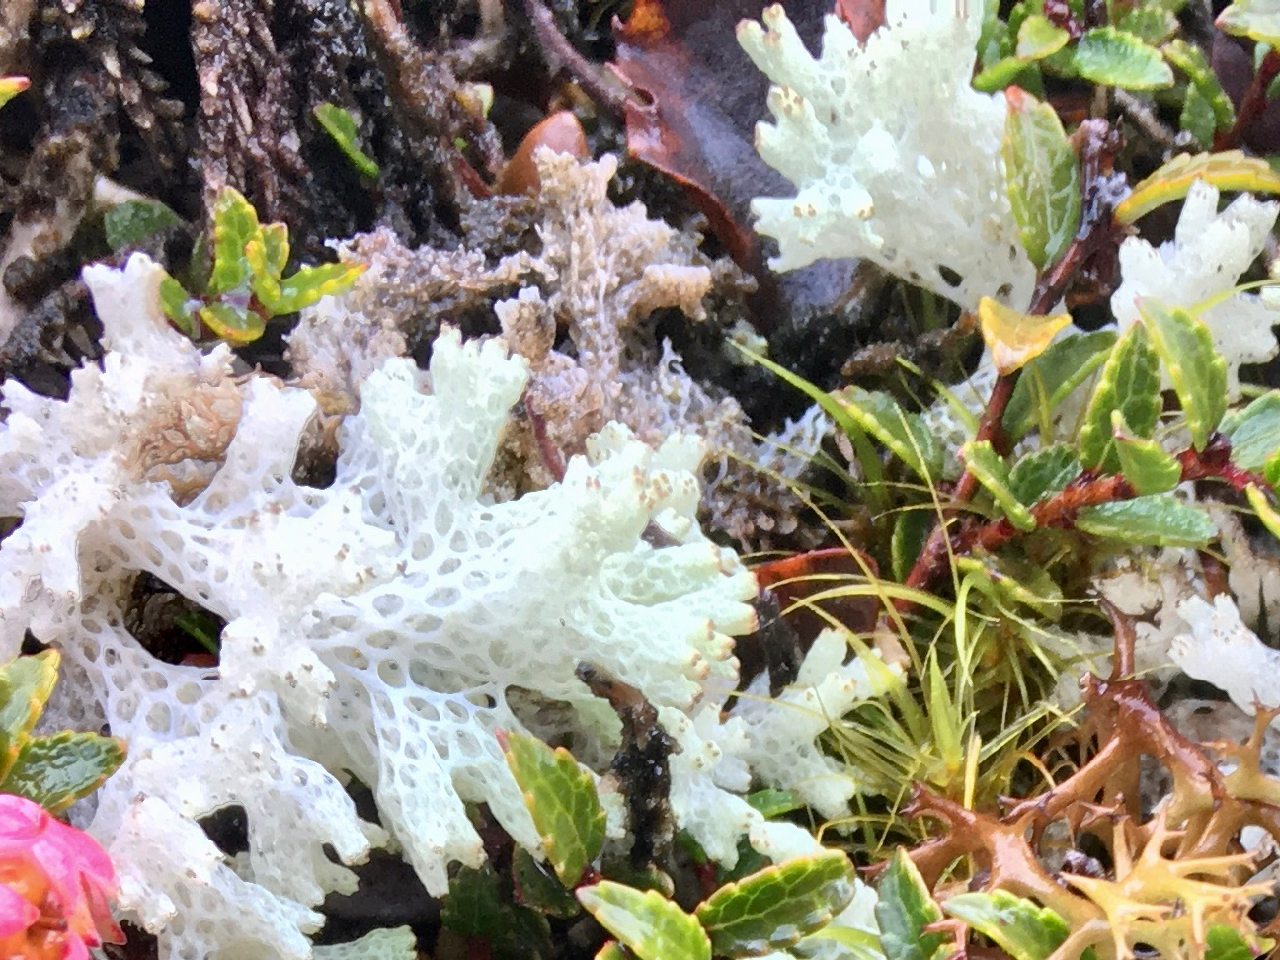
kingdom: Fungi
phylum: Ascomycota
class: Lecanoromycetes
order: Lecanorales
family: Cladoniaceae
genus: Pulchrocladia
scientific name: Pulchrocladia retipora
